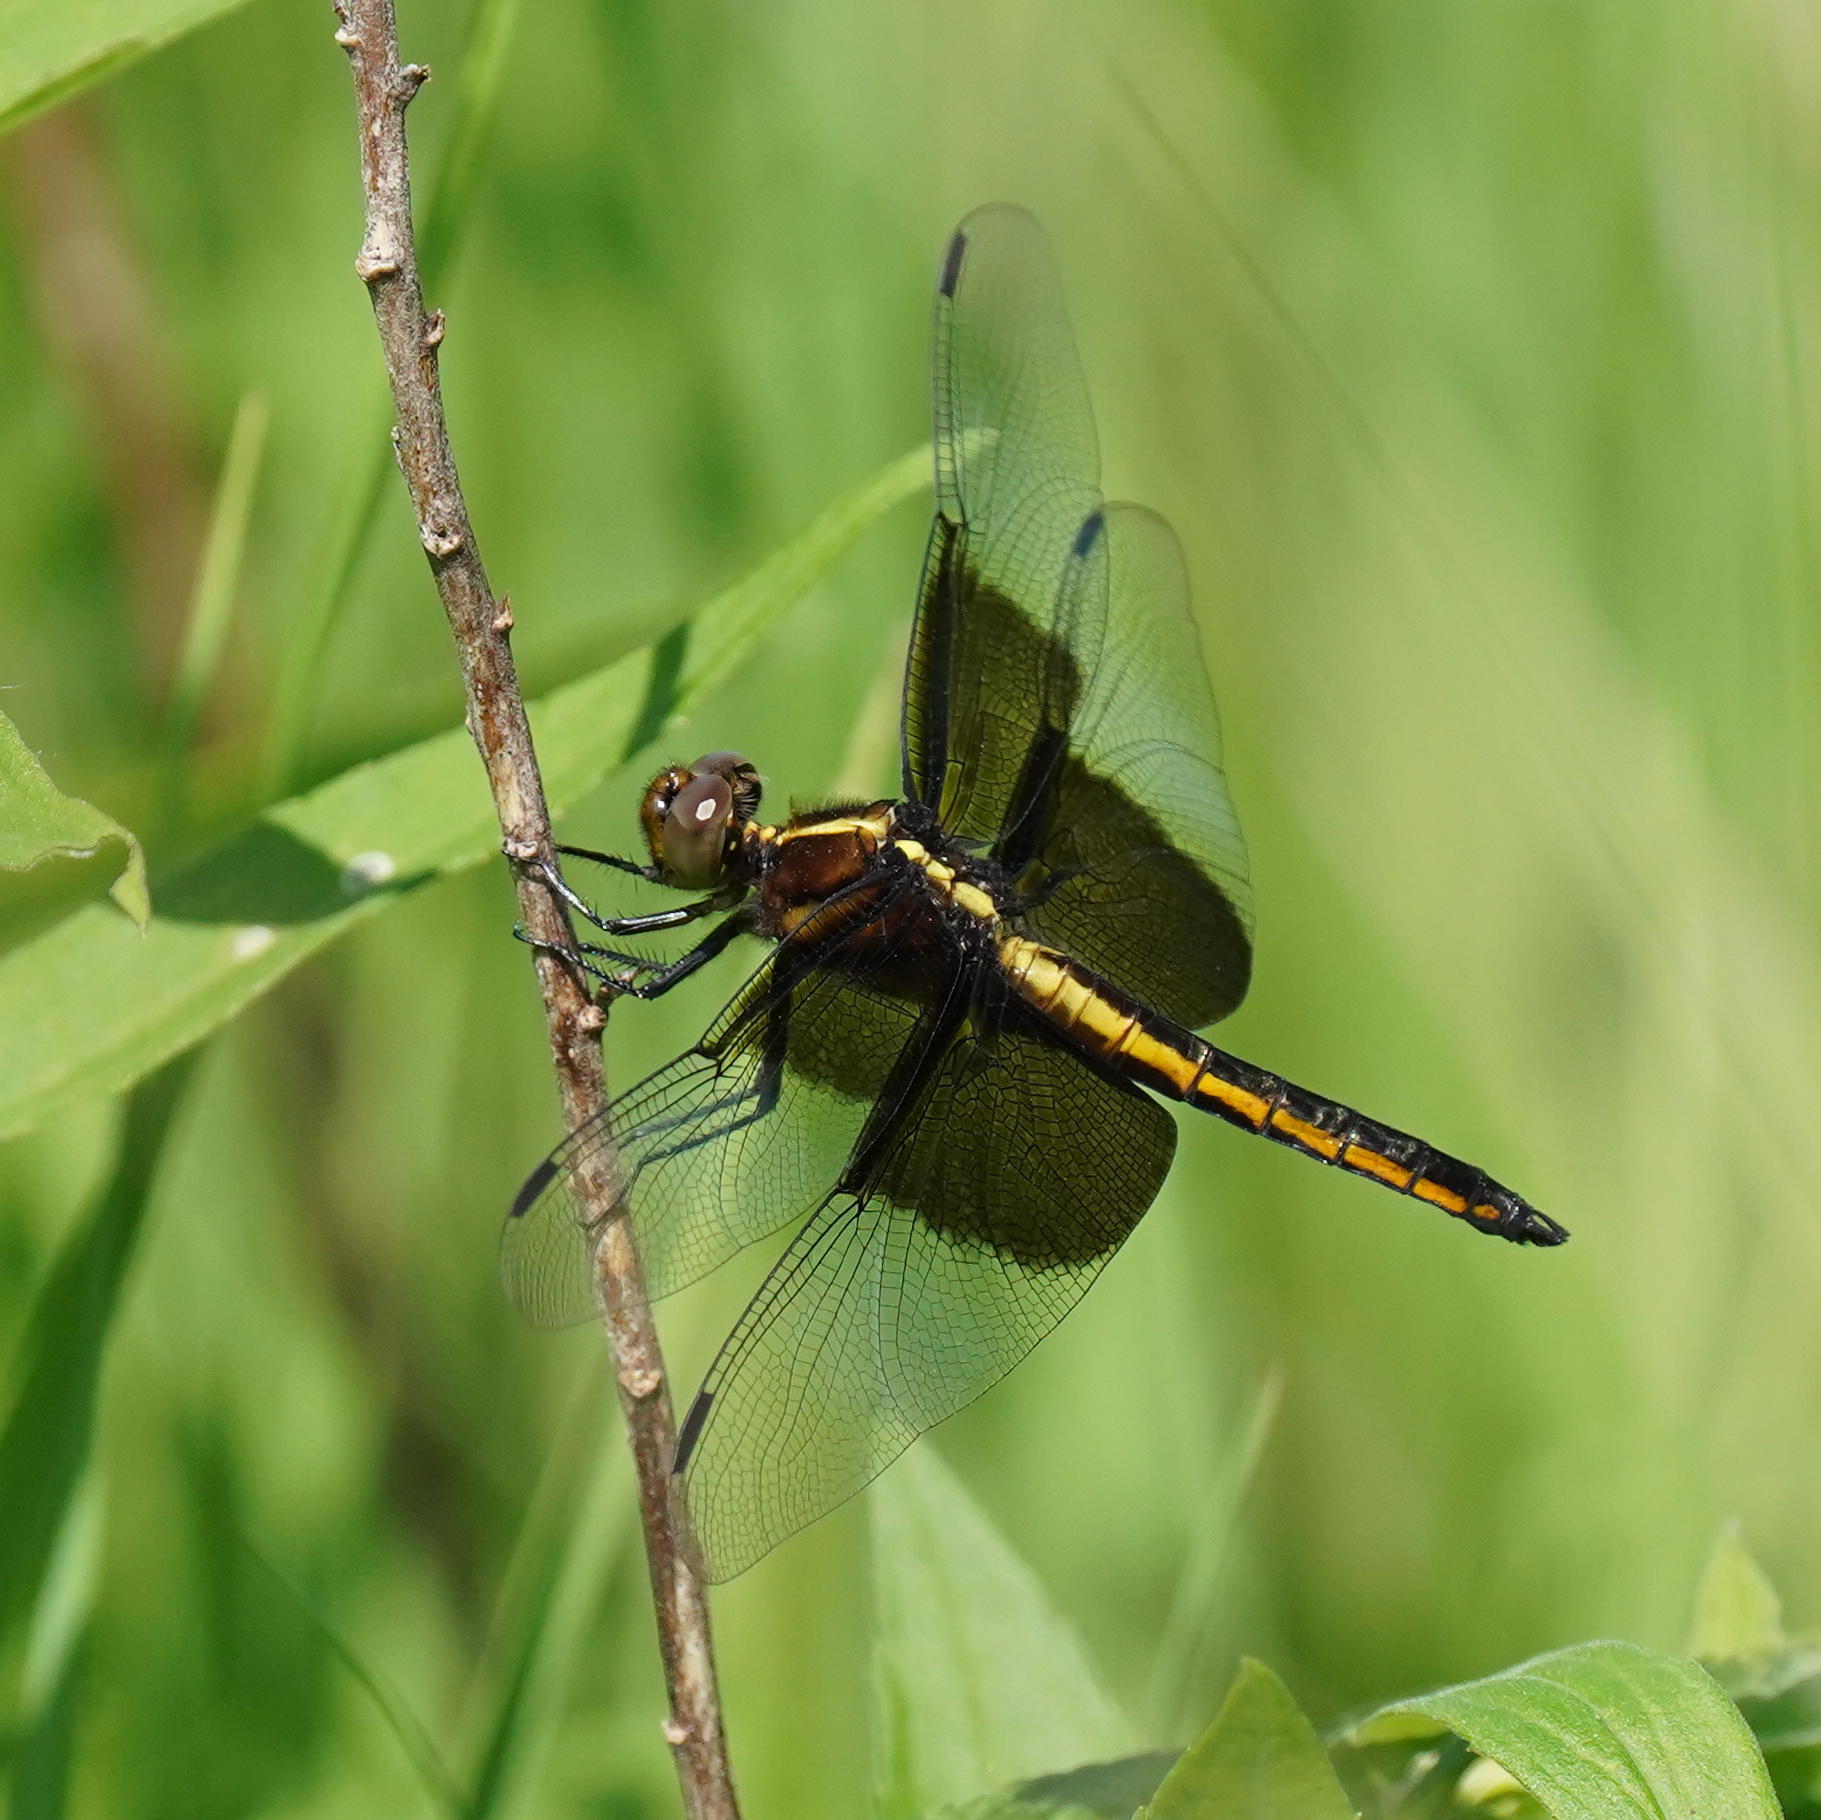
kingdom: Animalia
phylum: Arthropoda
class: Insecta
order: Odonata
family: Libellulidae
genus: Libellula
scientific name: Libellula luctuosa
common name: Widow skimmer
